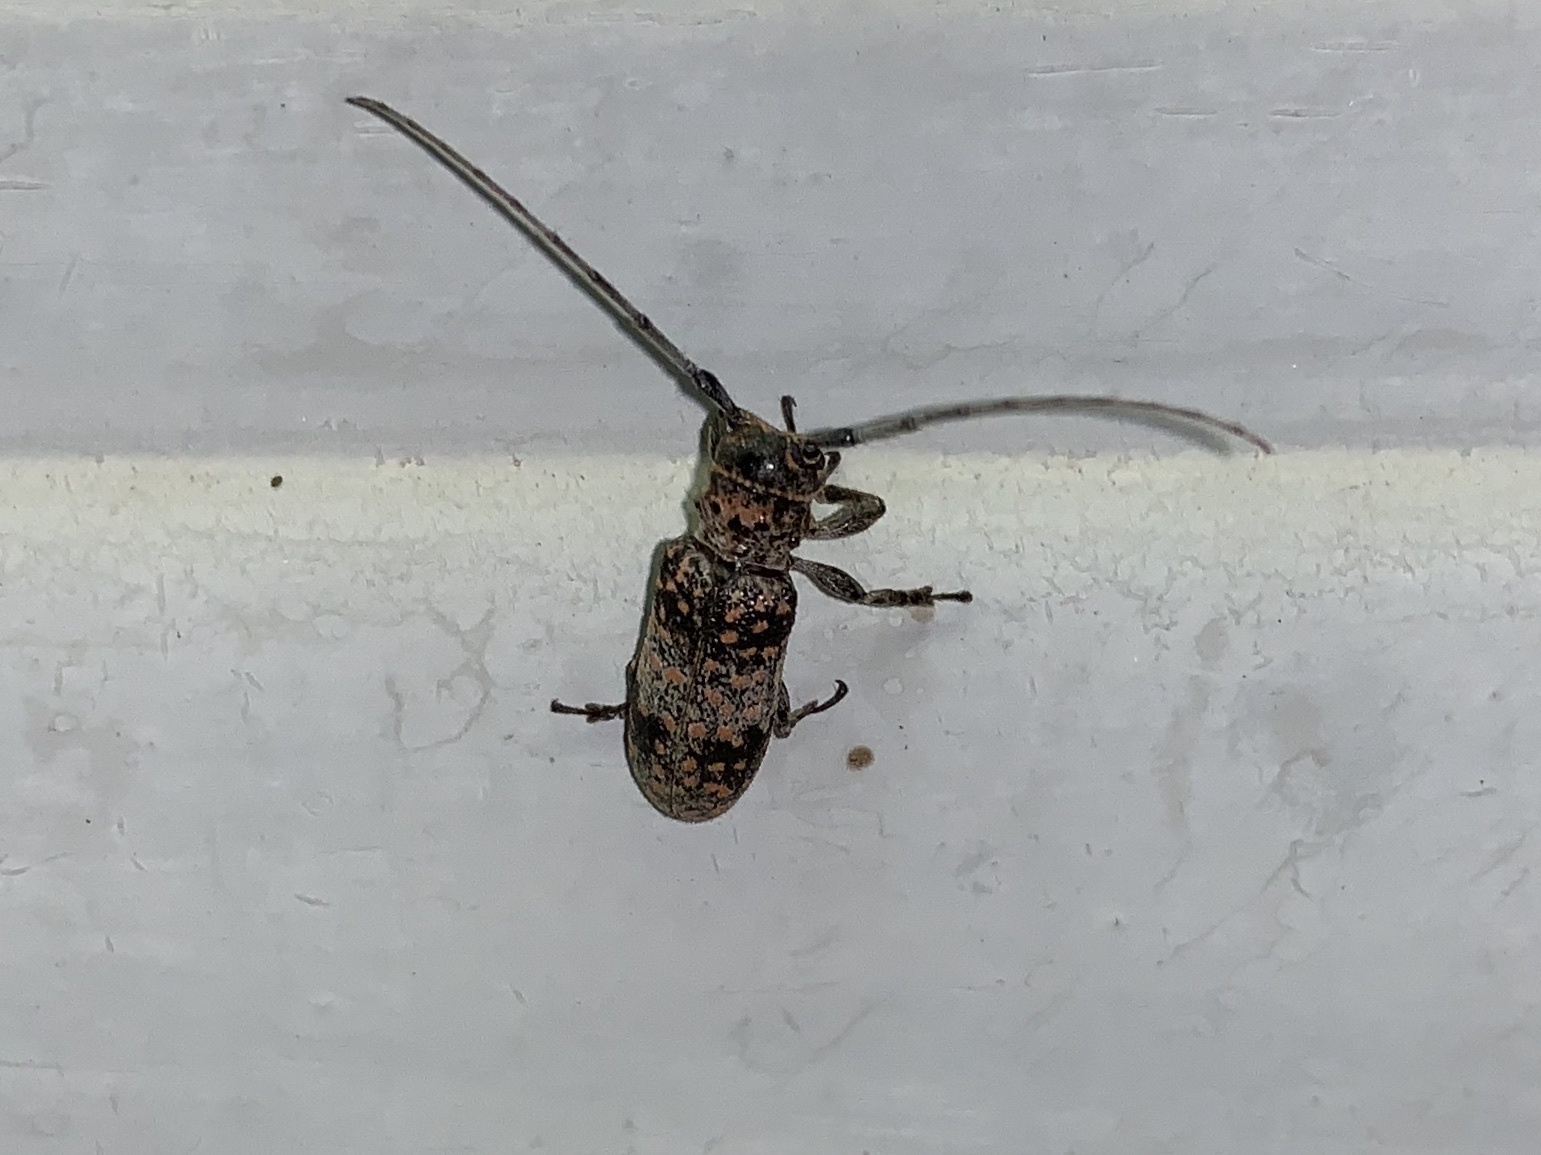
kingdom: Animalia
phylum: Arthropoda
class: Insecta
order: Coleoptera
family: Cerambycidae
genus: Oncideres
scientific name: Oncideres rhodosticta
